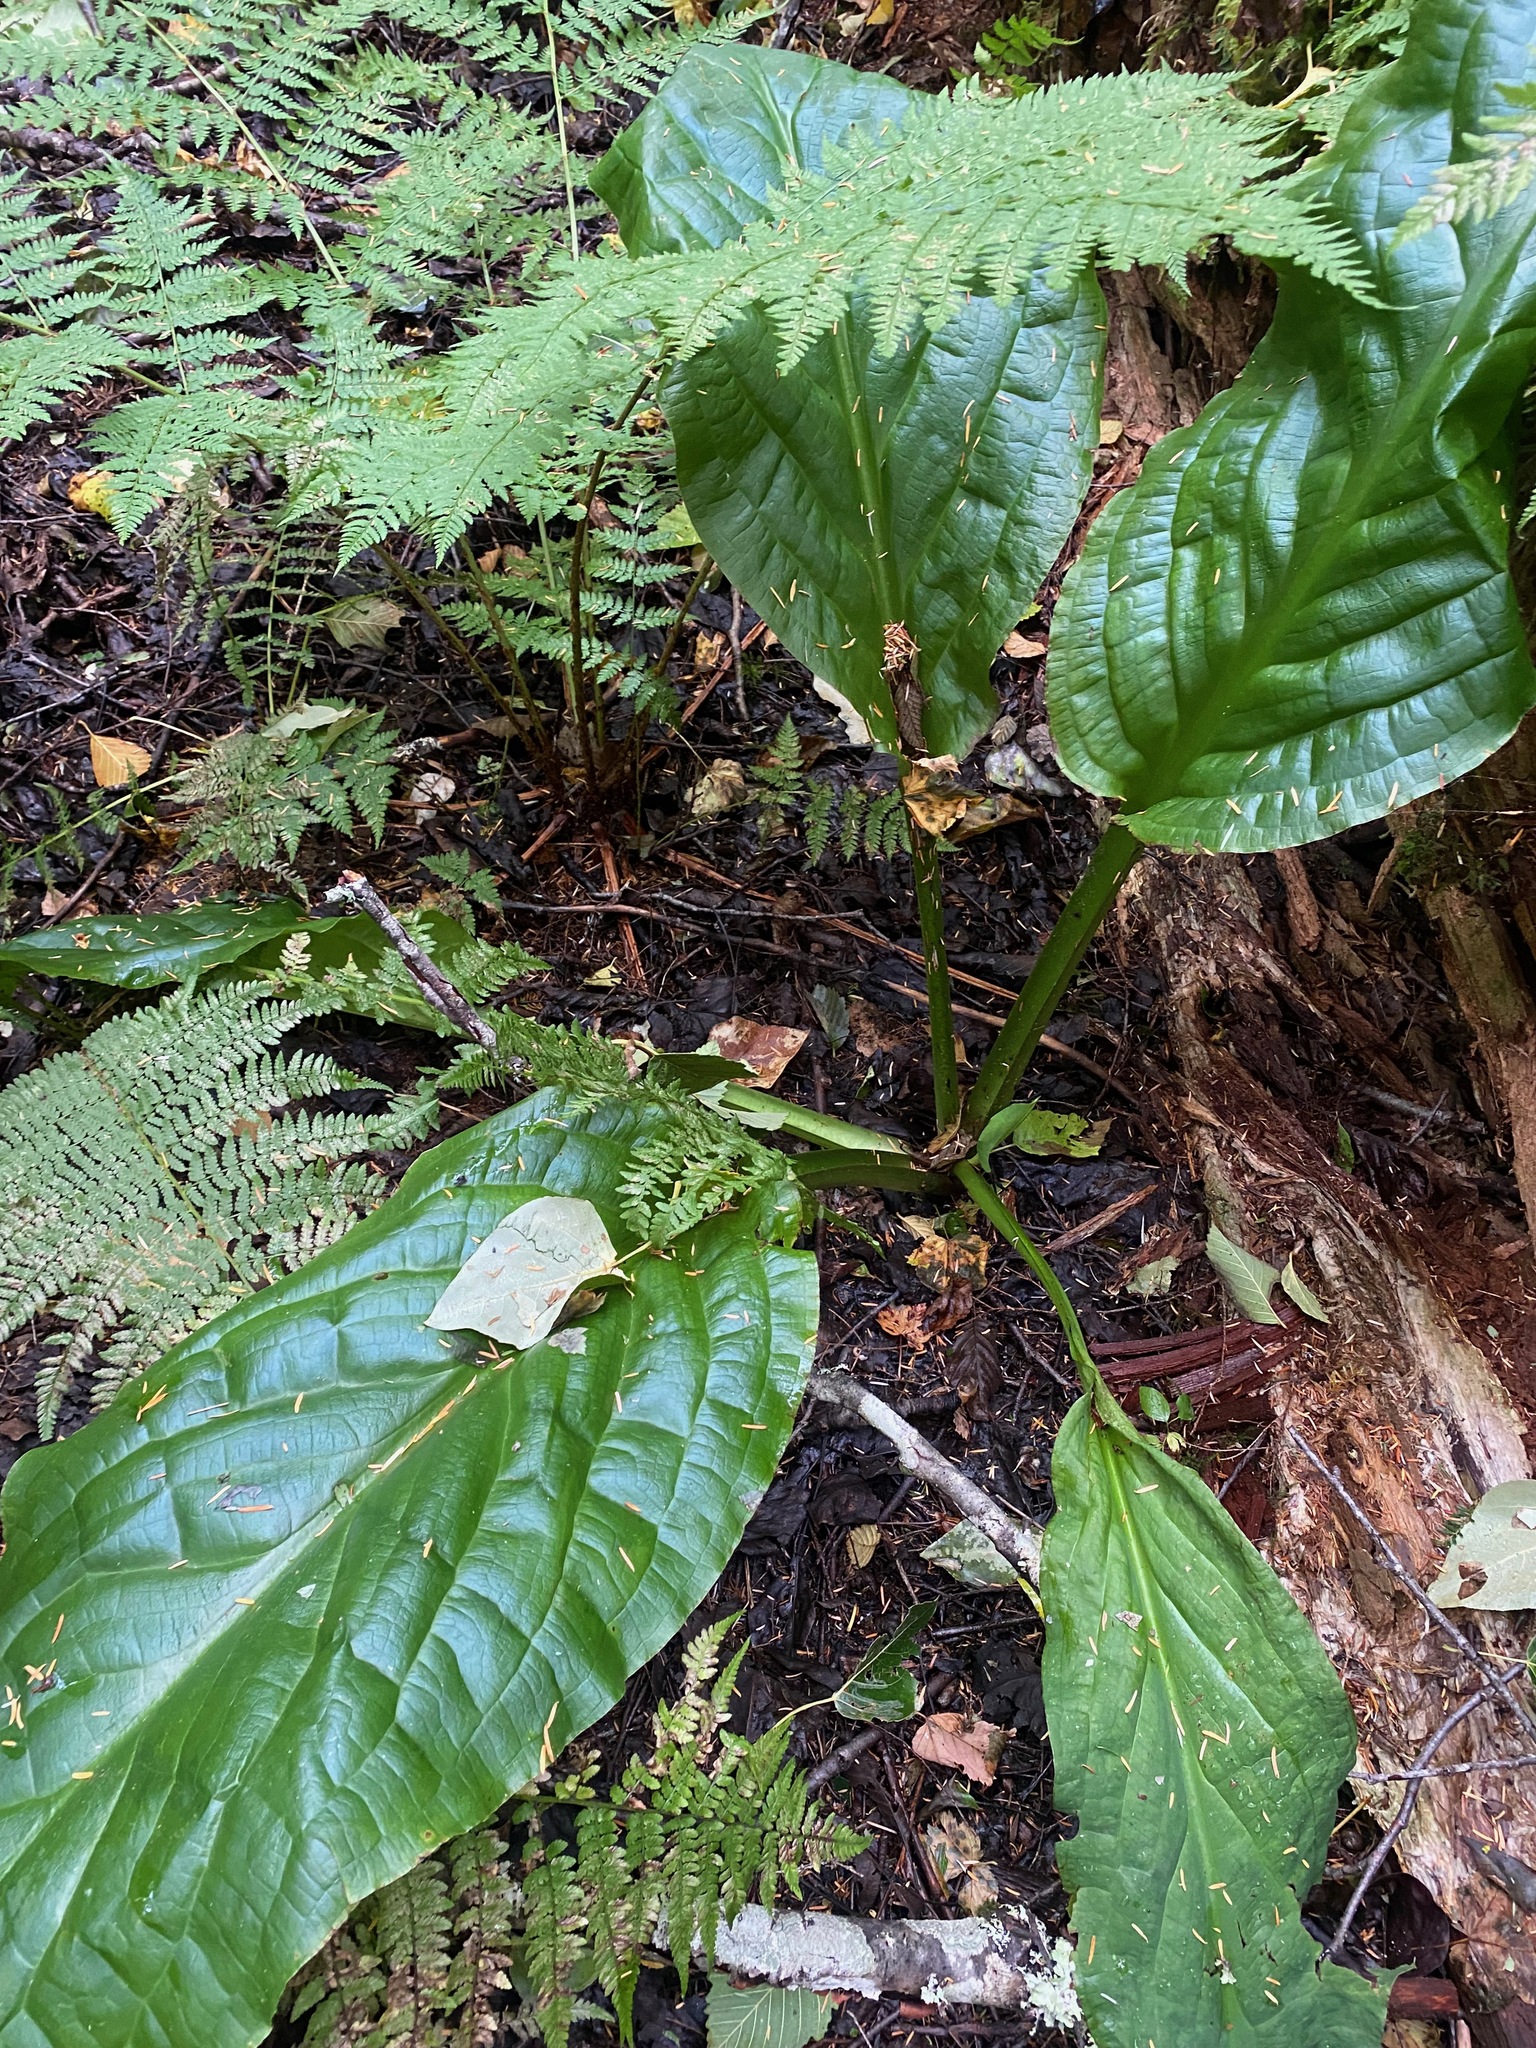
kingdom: Plantae
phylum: Tracheophyta
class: Liliopsida
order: Alismatales
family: Araceae
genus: Lysichiton
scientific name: Lysichiton americanus
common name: American skunk cabbage
